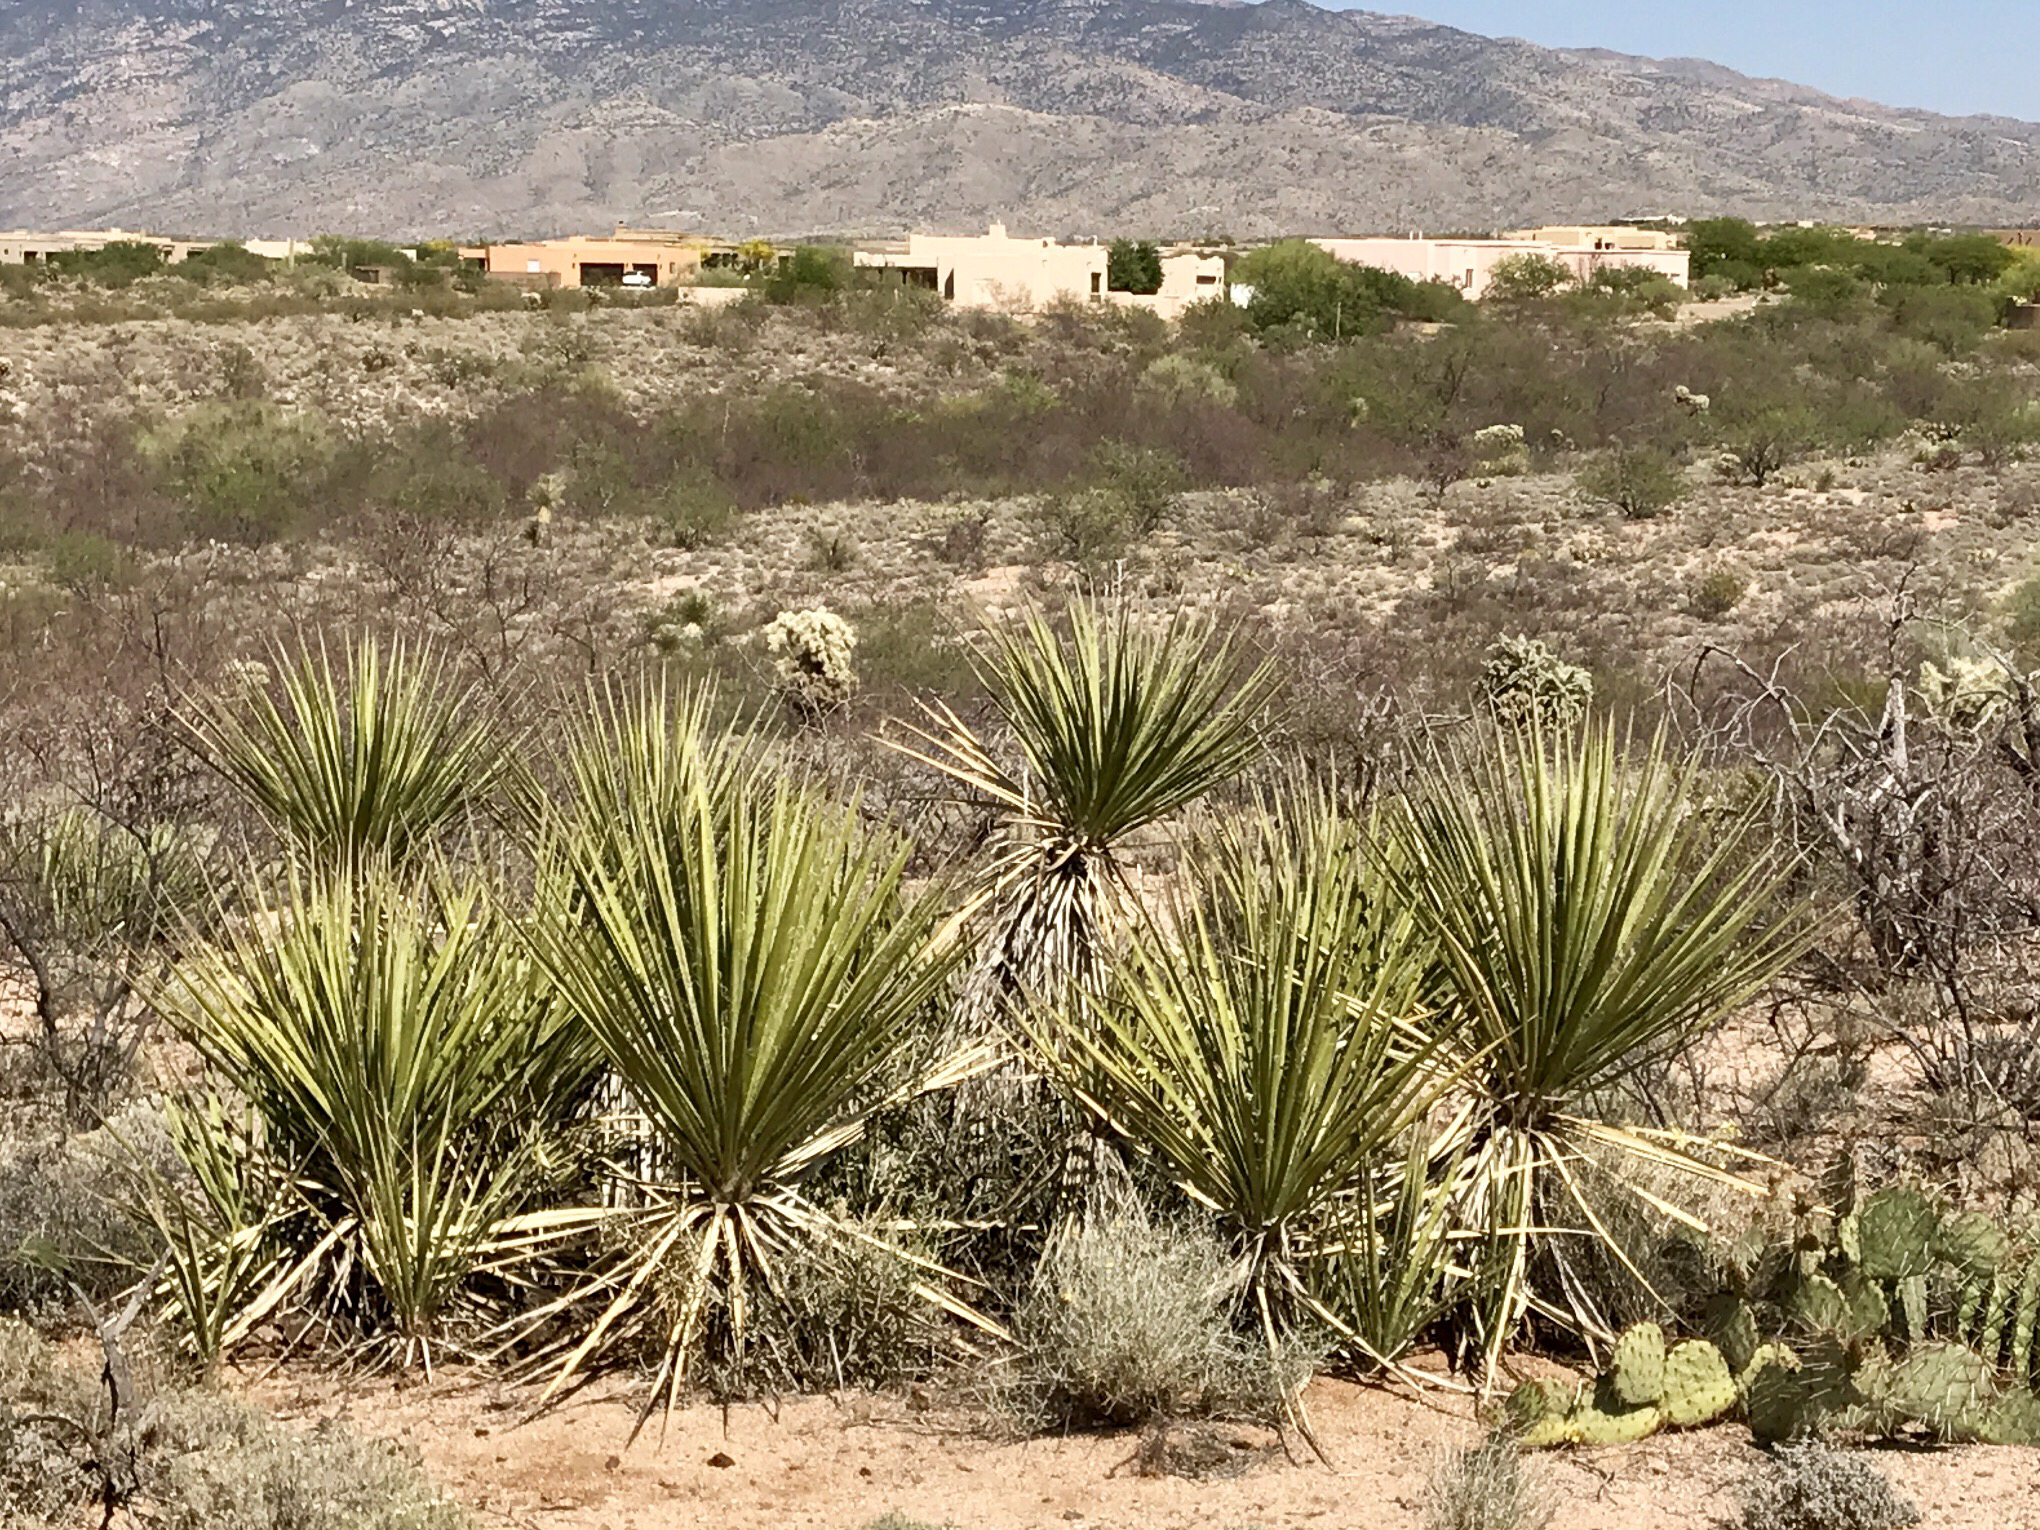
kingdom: Plantae
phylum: Tracheophyta
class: Liliopsida
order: Asparagales
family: Asparagaceae
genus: Yucca
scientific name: Yucca baccata
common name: Banana yucca
